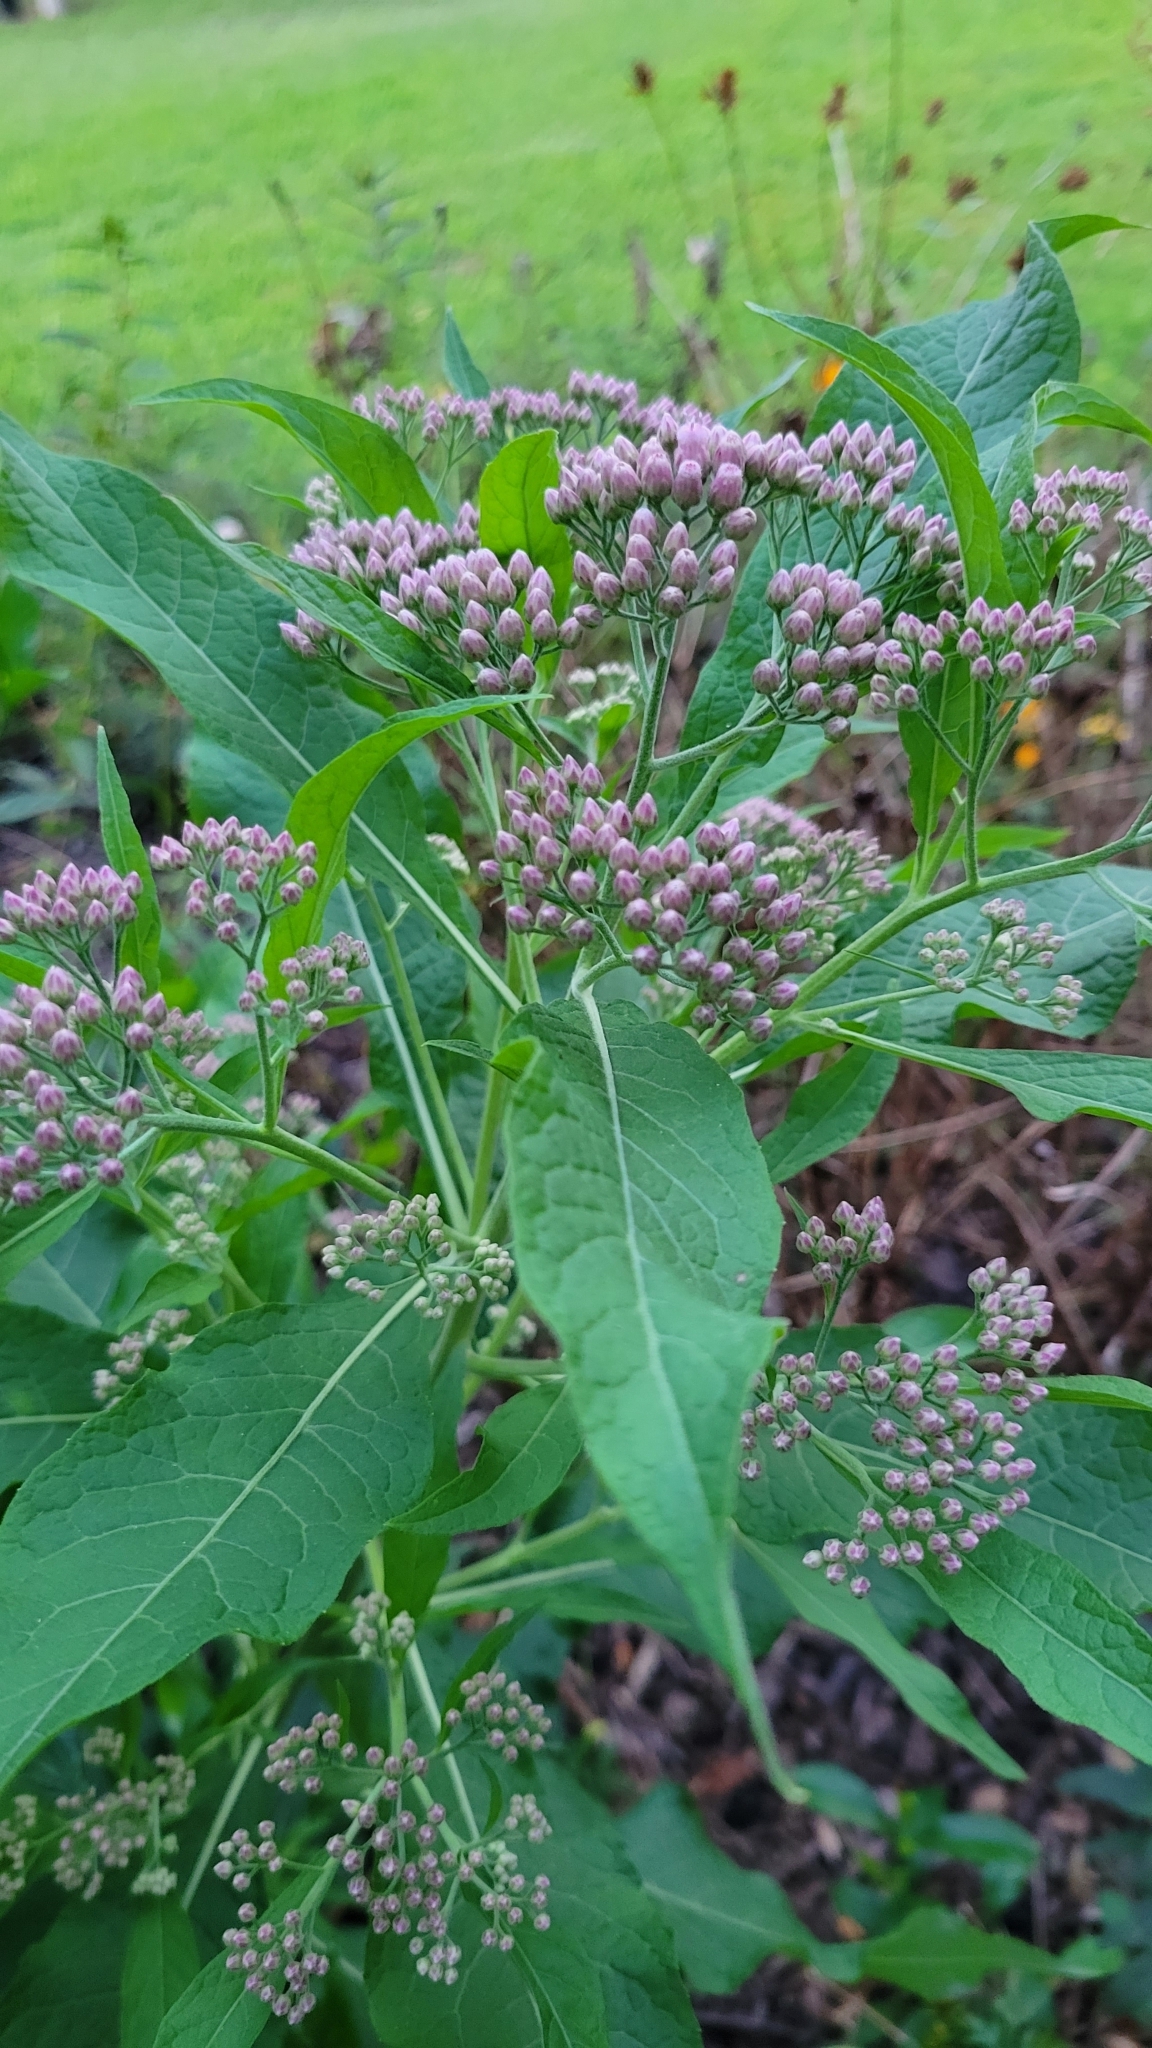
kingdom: Plantae
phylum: Tracheophyta
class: Magnoliopsida
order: Asterales
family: Asteraceae
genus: Pluchea
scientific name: Pluchea camphorata
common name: Camphor pluchea
